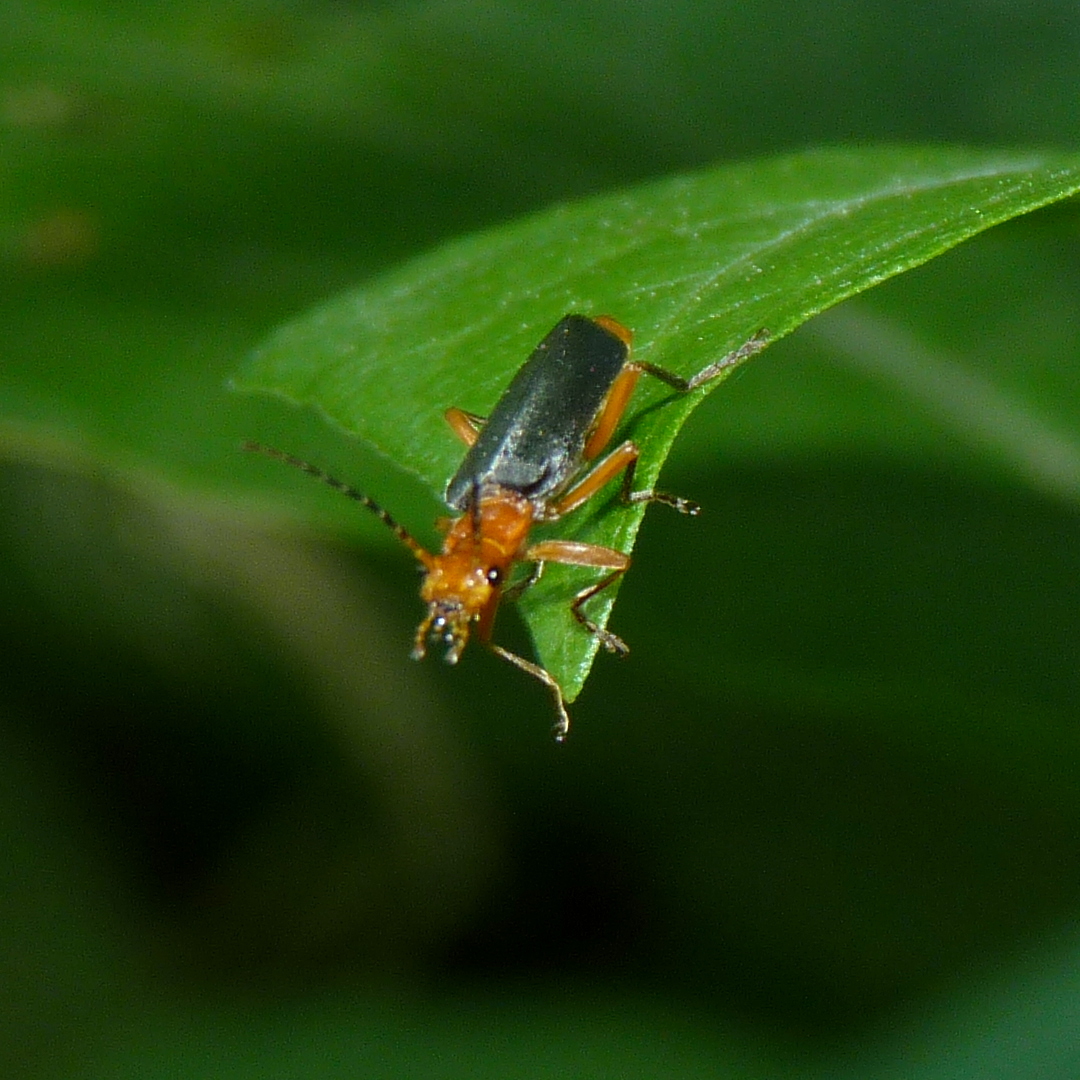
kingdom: Animalia
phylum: Arthropoda
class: Insecta
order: Coleoptera
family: Cantharidae
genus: Podabrus
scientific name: Podabrus tomentosus
